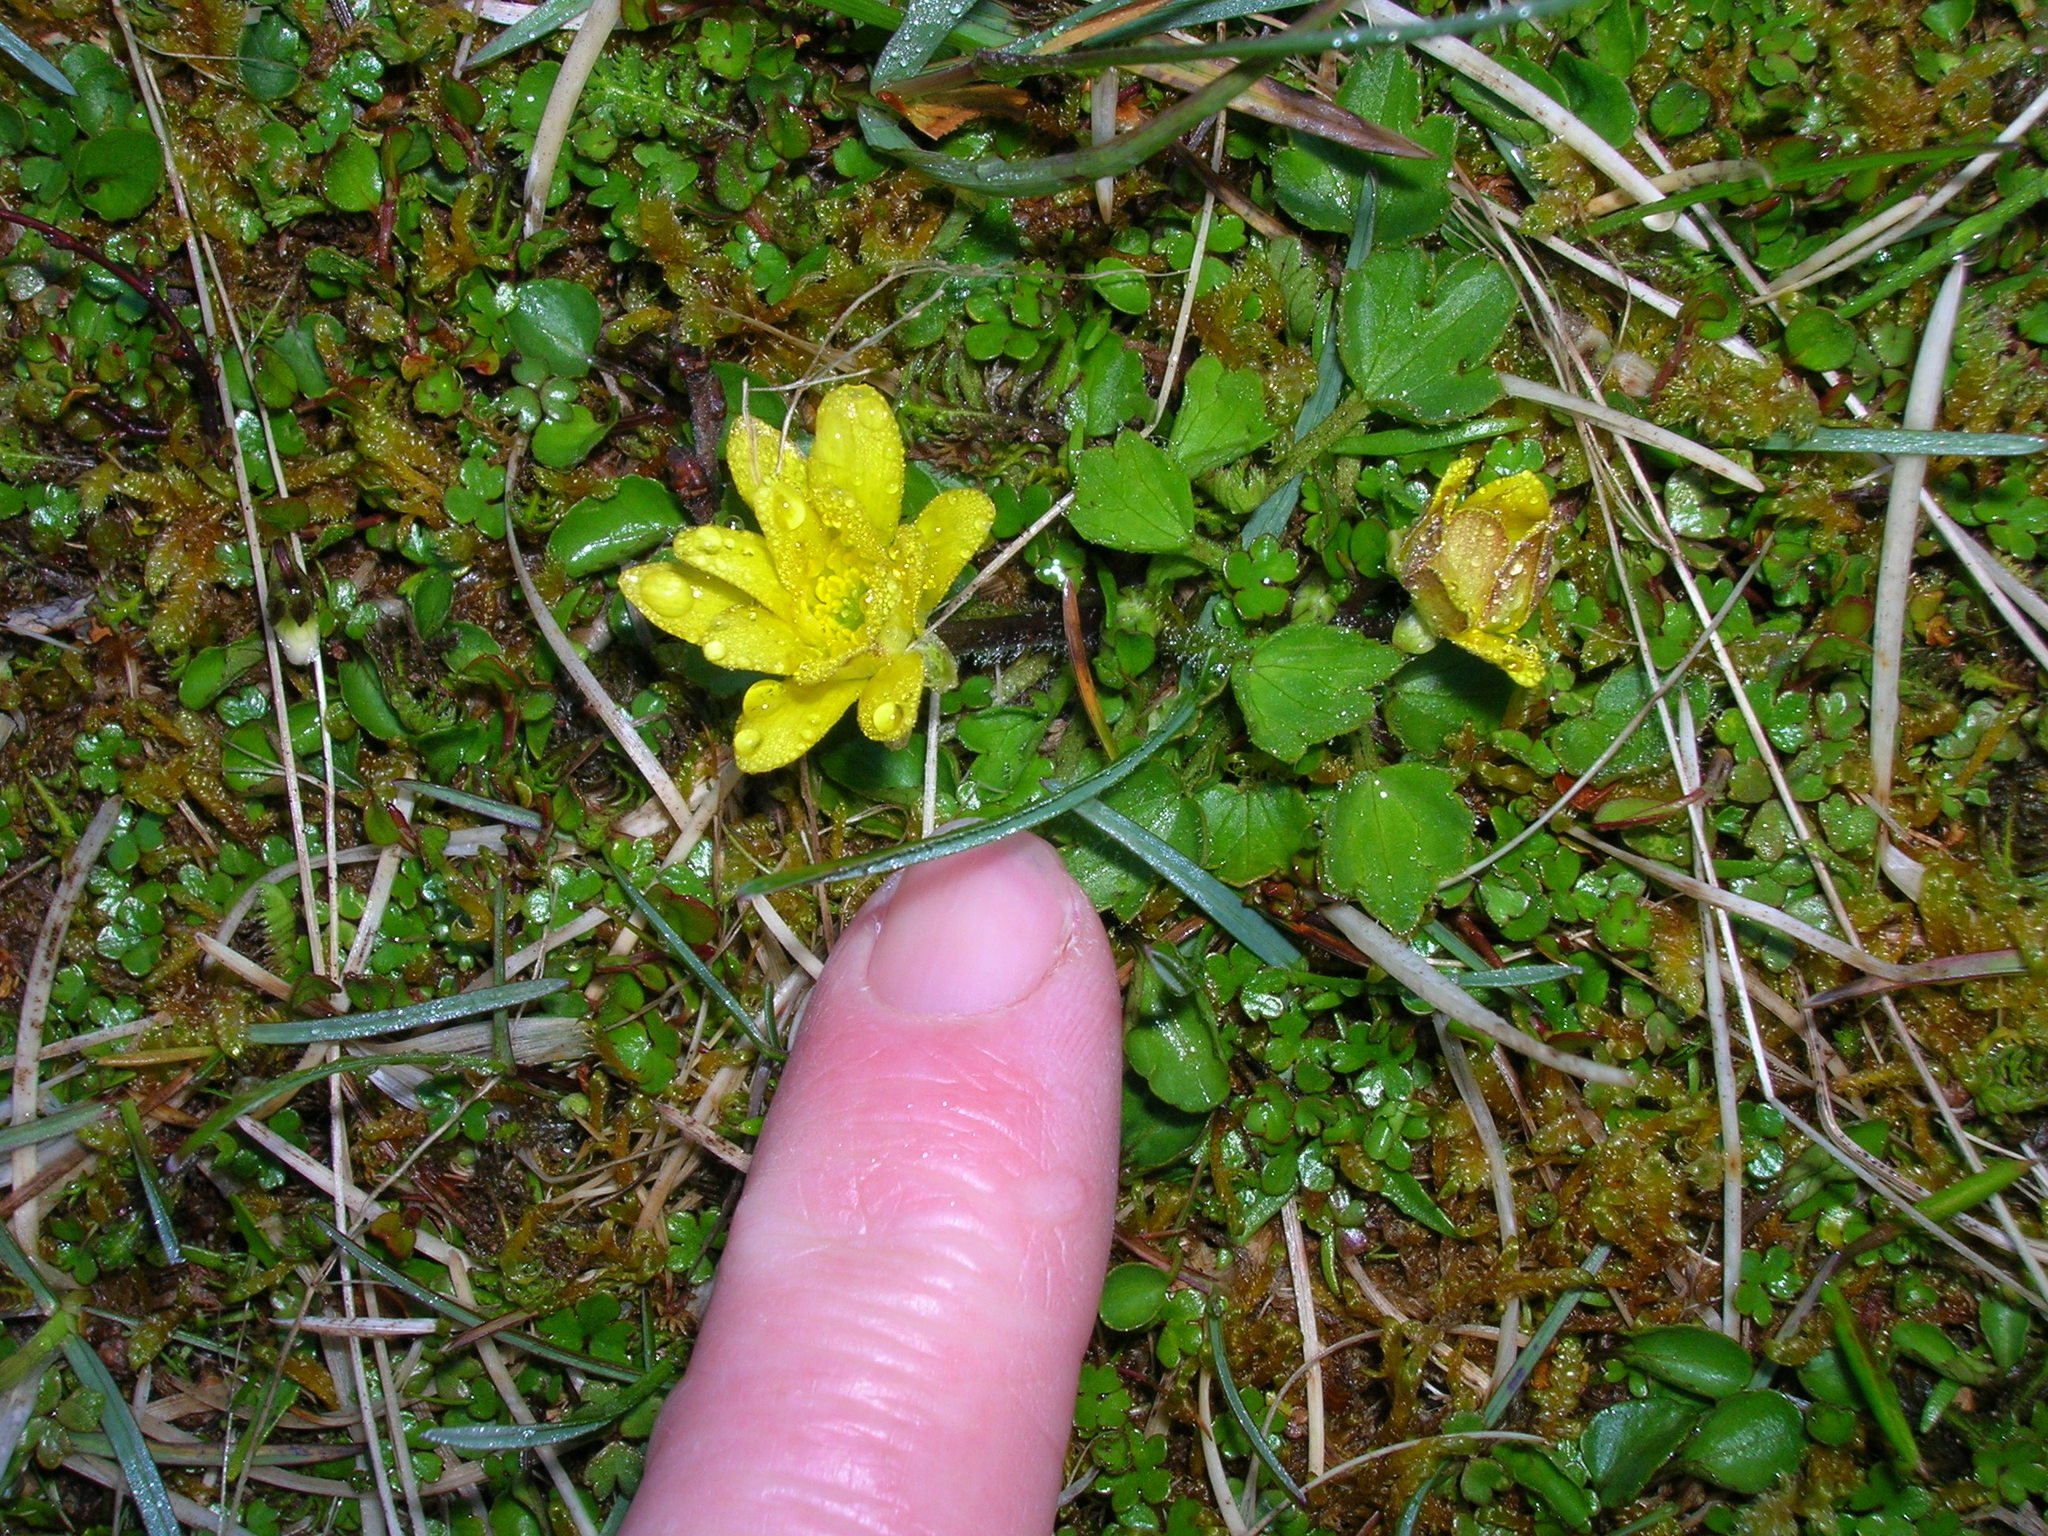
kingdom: Plantae
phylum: Tracheophyta
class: Magnoliopsida
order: Ranunculales
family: Ranunculaceae
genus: Ranunculus
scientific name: Ranunculus multiscapus
